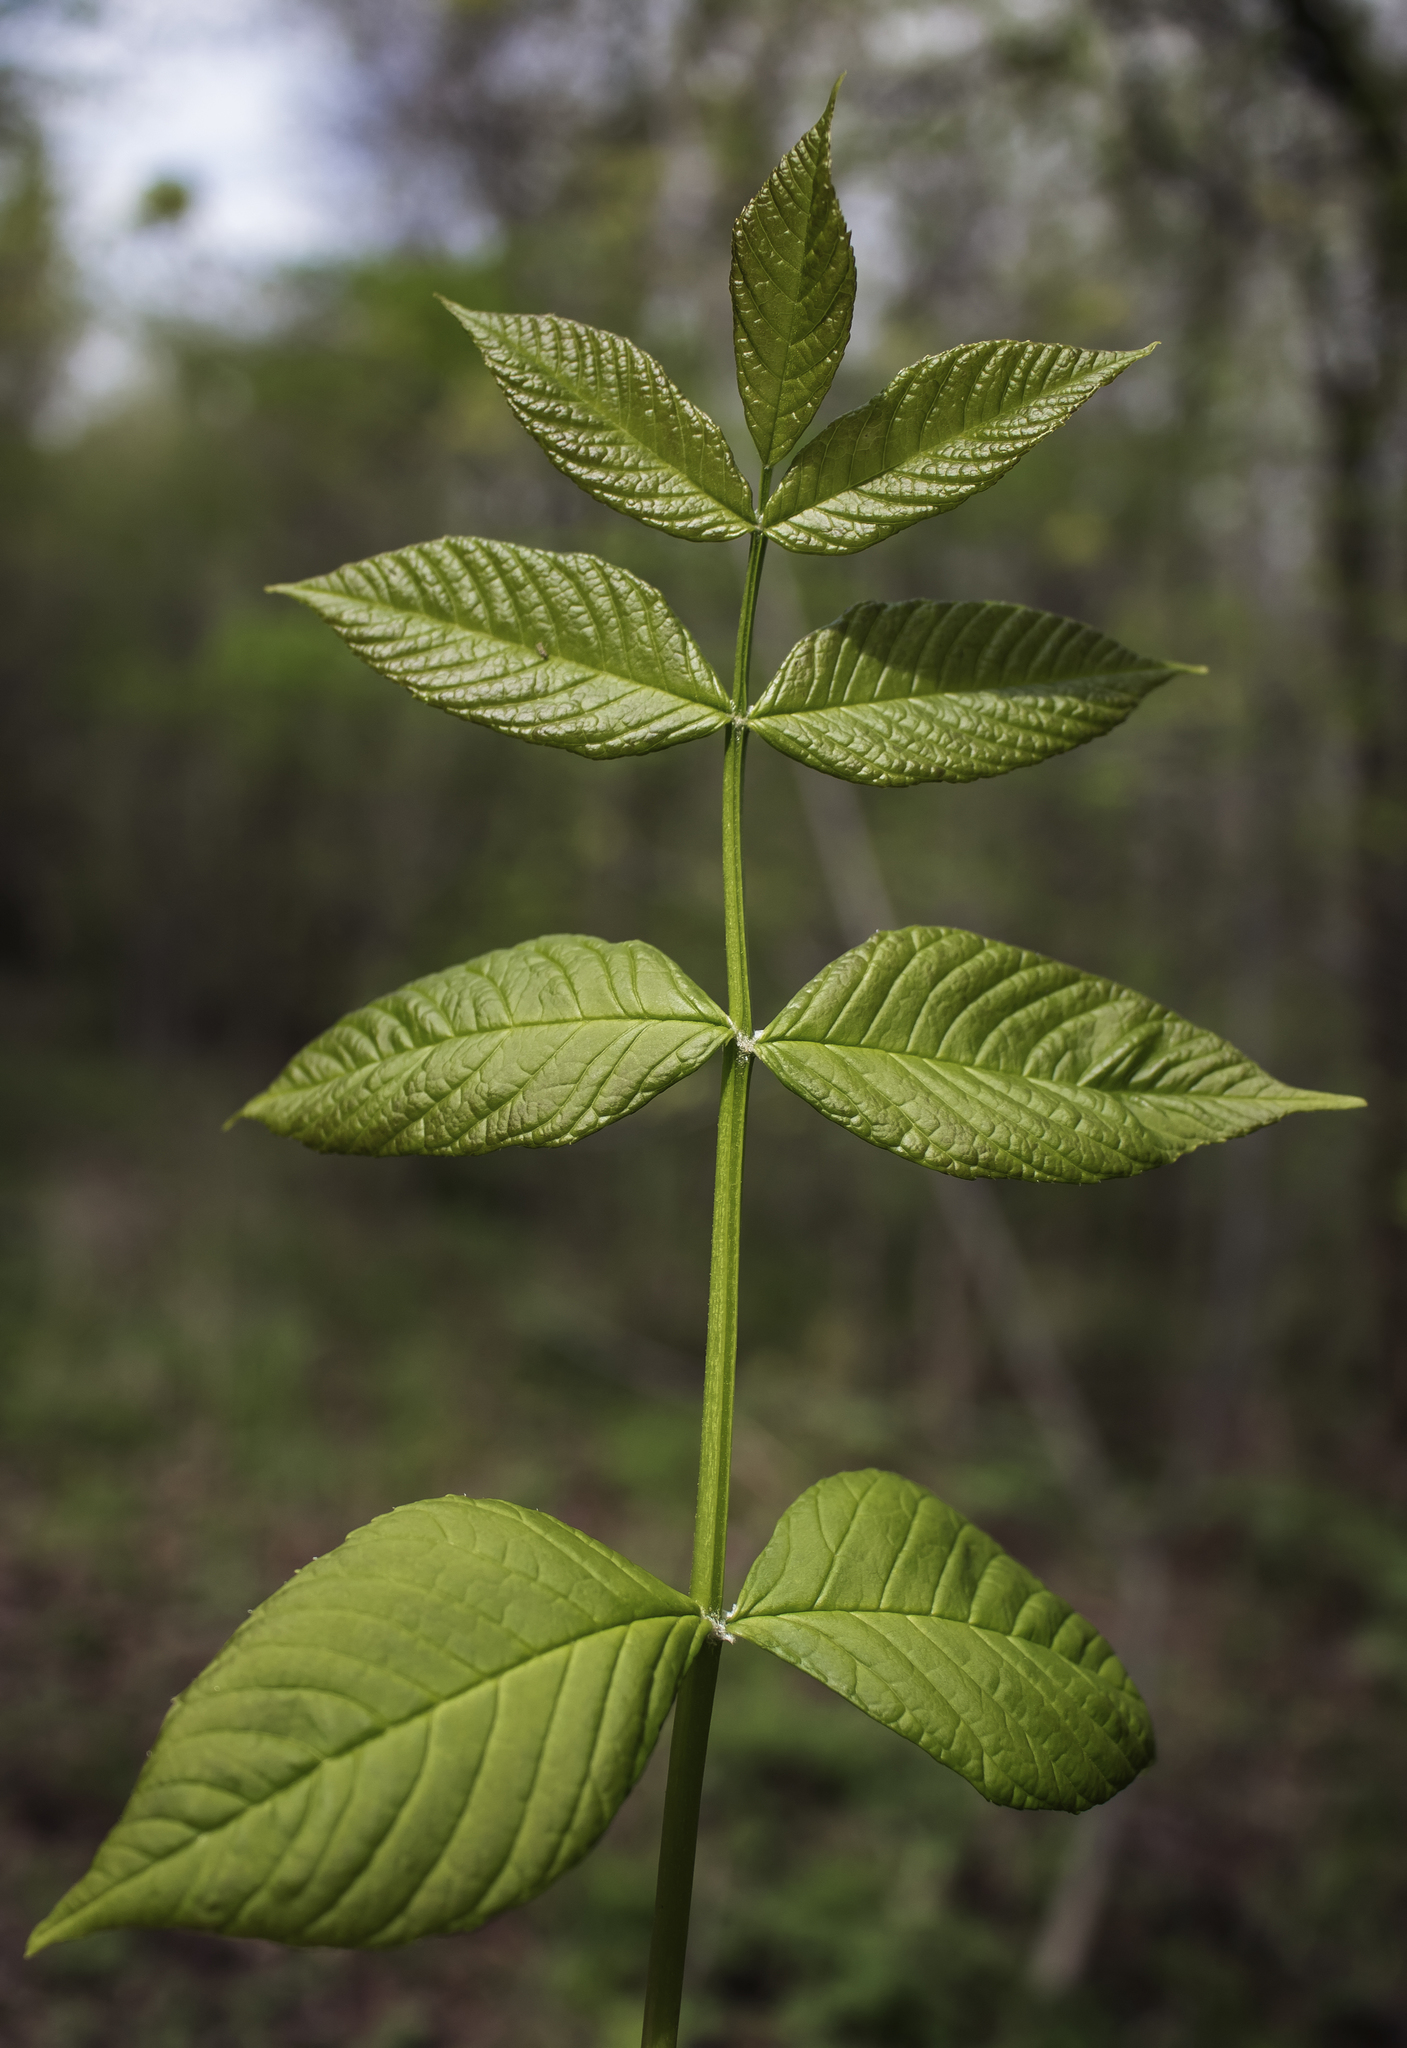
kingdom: Plantae
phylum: Tracheophyta
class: Magnoliopsida
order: Lamiales
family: Oleaceae
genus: Fraxinus
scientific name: Fraxinus nigra
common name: Black ash
